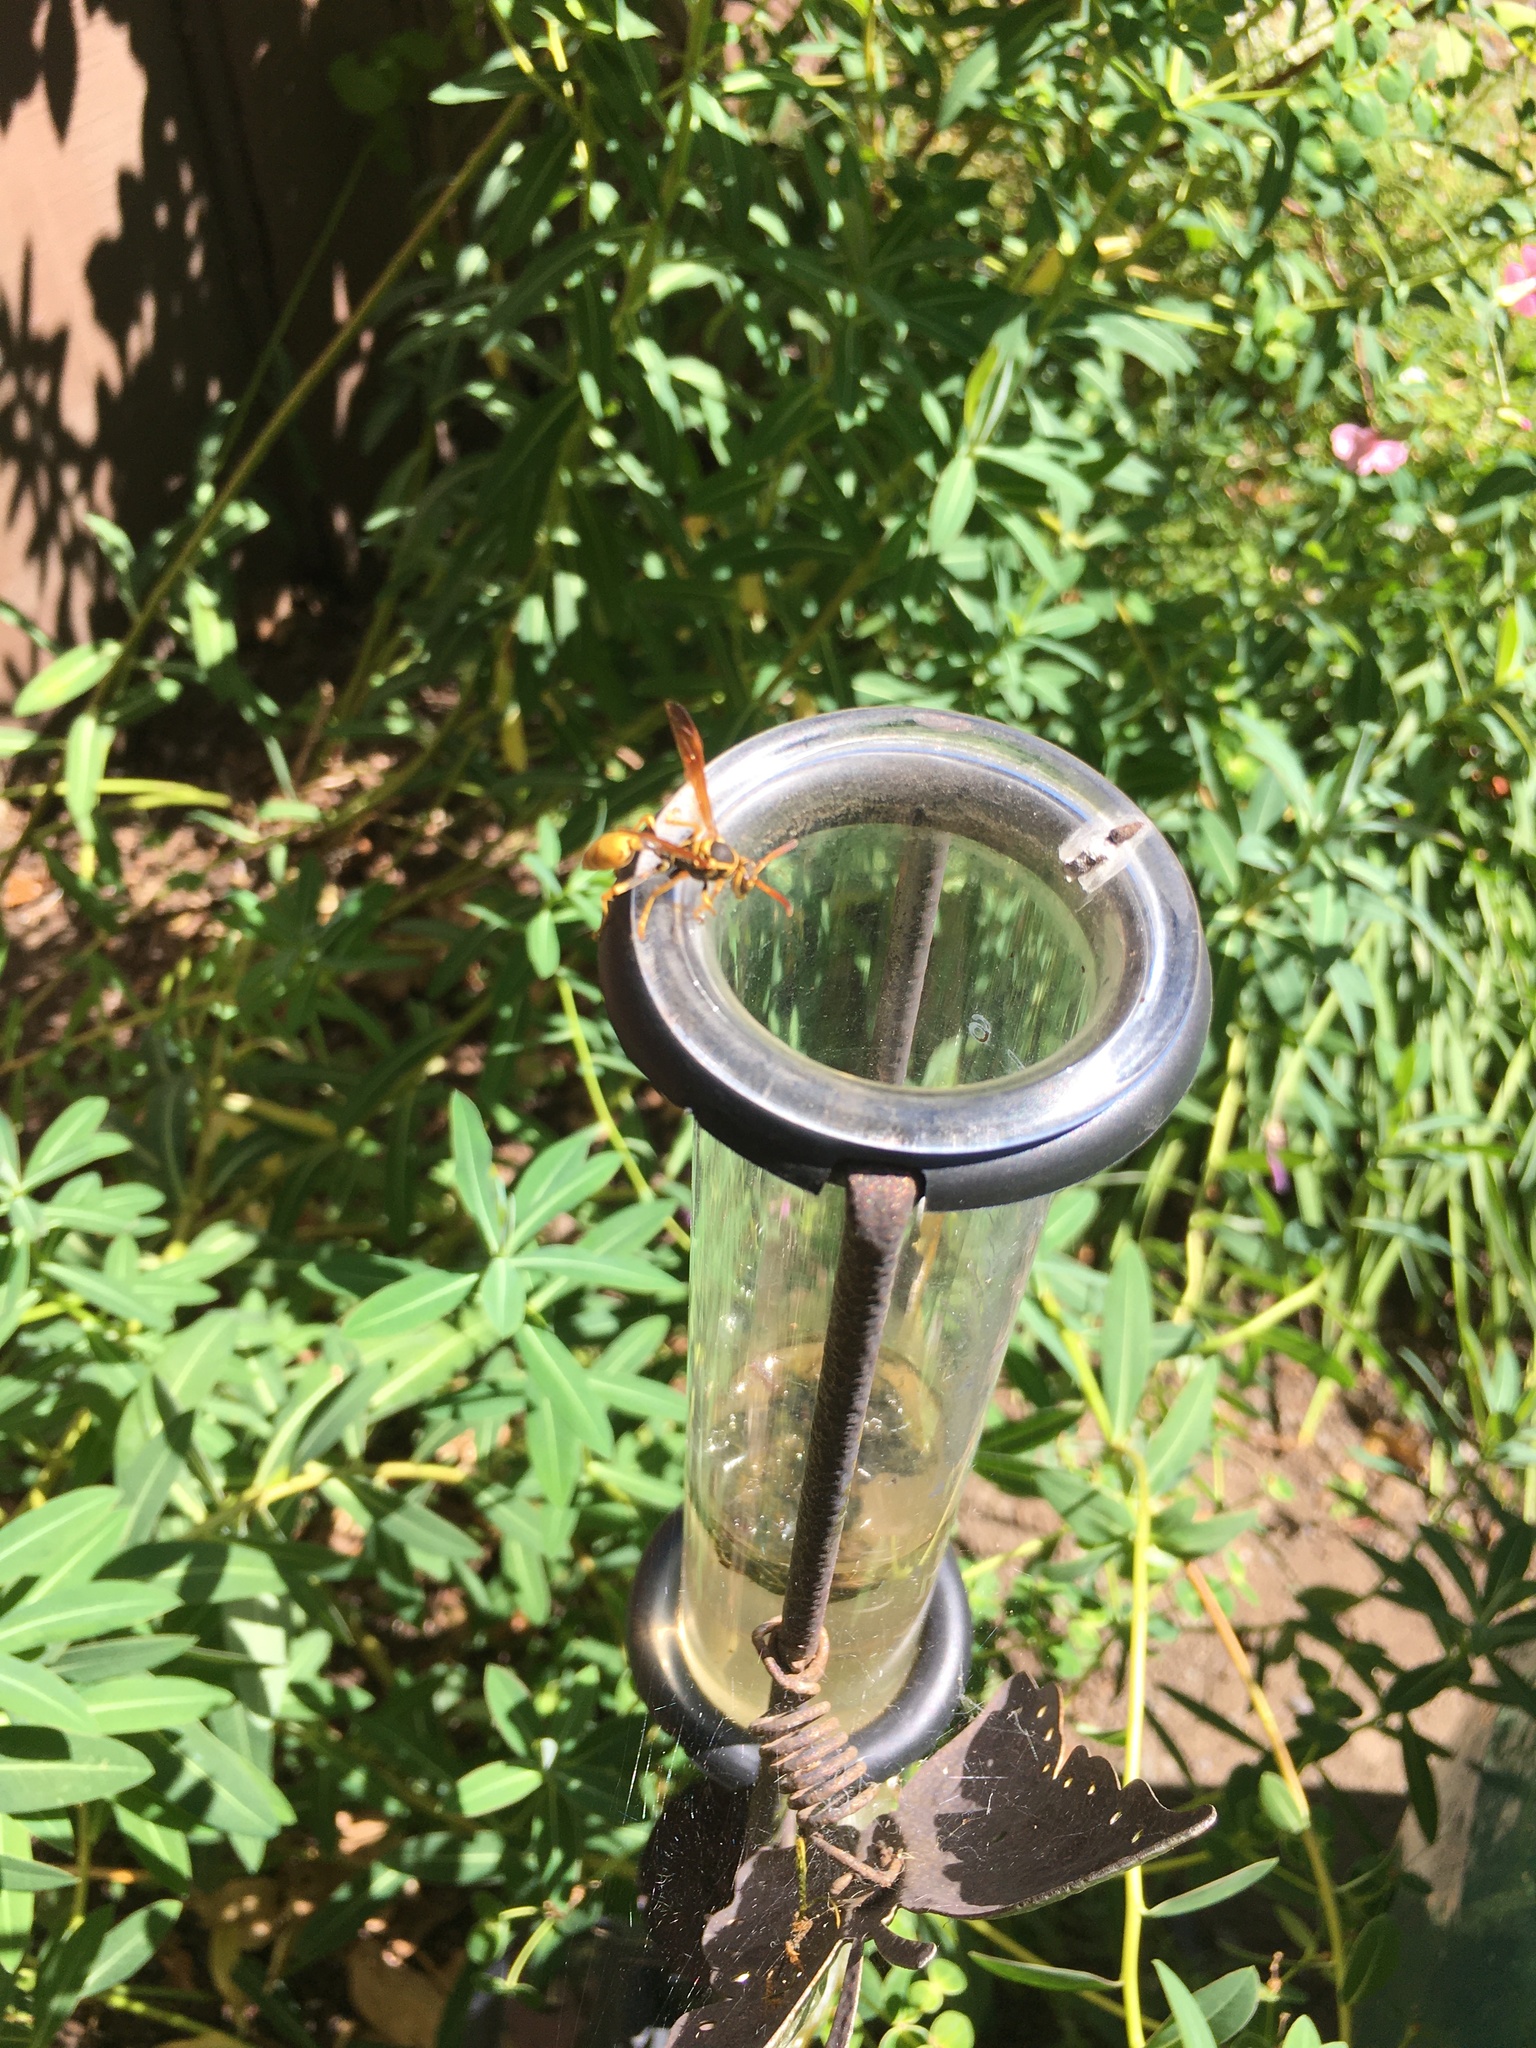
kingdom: Animalia
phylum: Arthropoda
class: Insecta
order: Hymenoptera
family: Vespidae
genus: Mischocyttarus
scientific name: Mischocyttarus flavitarsis
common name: Wasp
